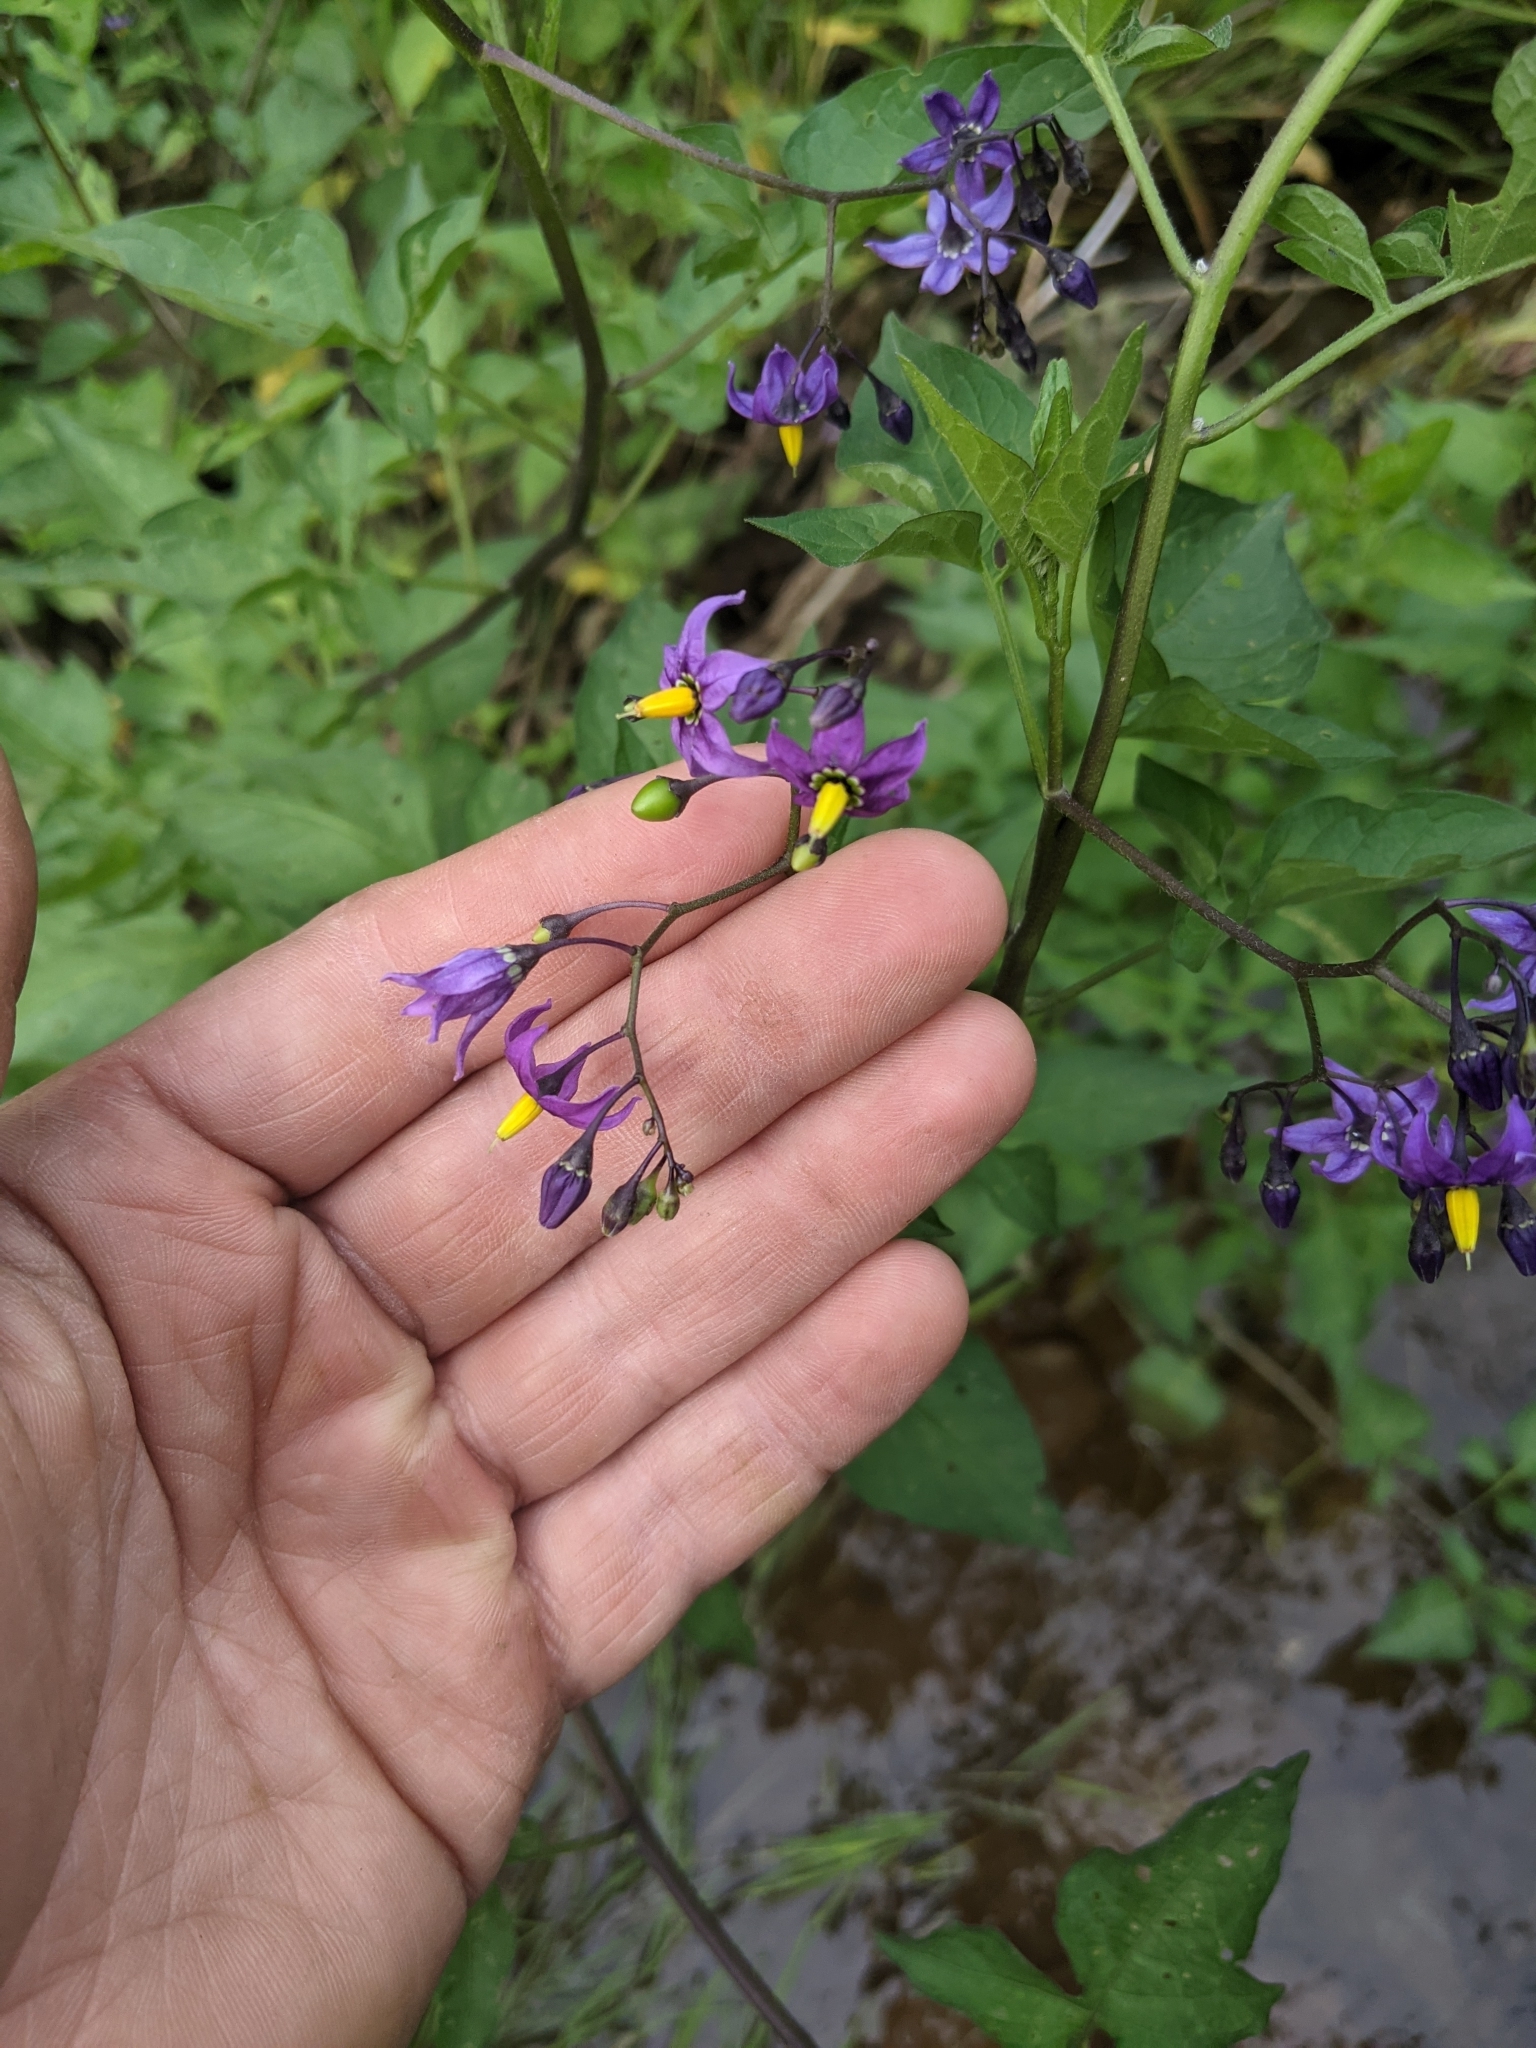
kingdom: Plantae
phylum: Tracheophyta
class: Magnoliopsida
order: Solanales
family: Solanaceae
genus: Solanum
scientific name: Solanum dulcamara
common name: Climbing nightshade
